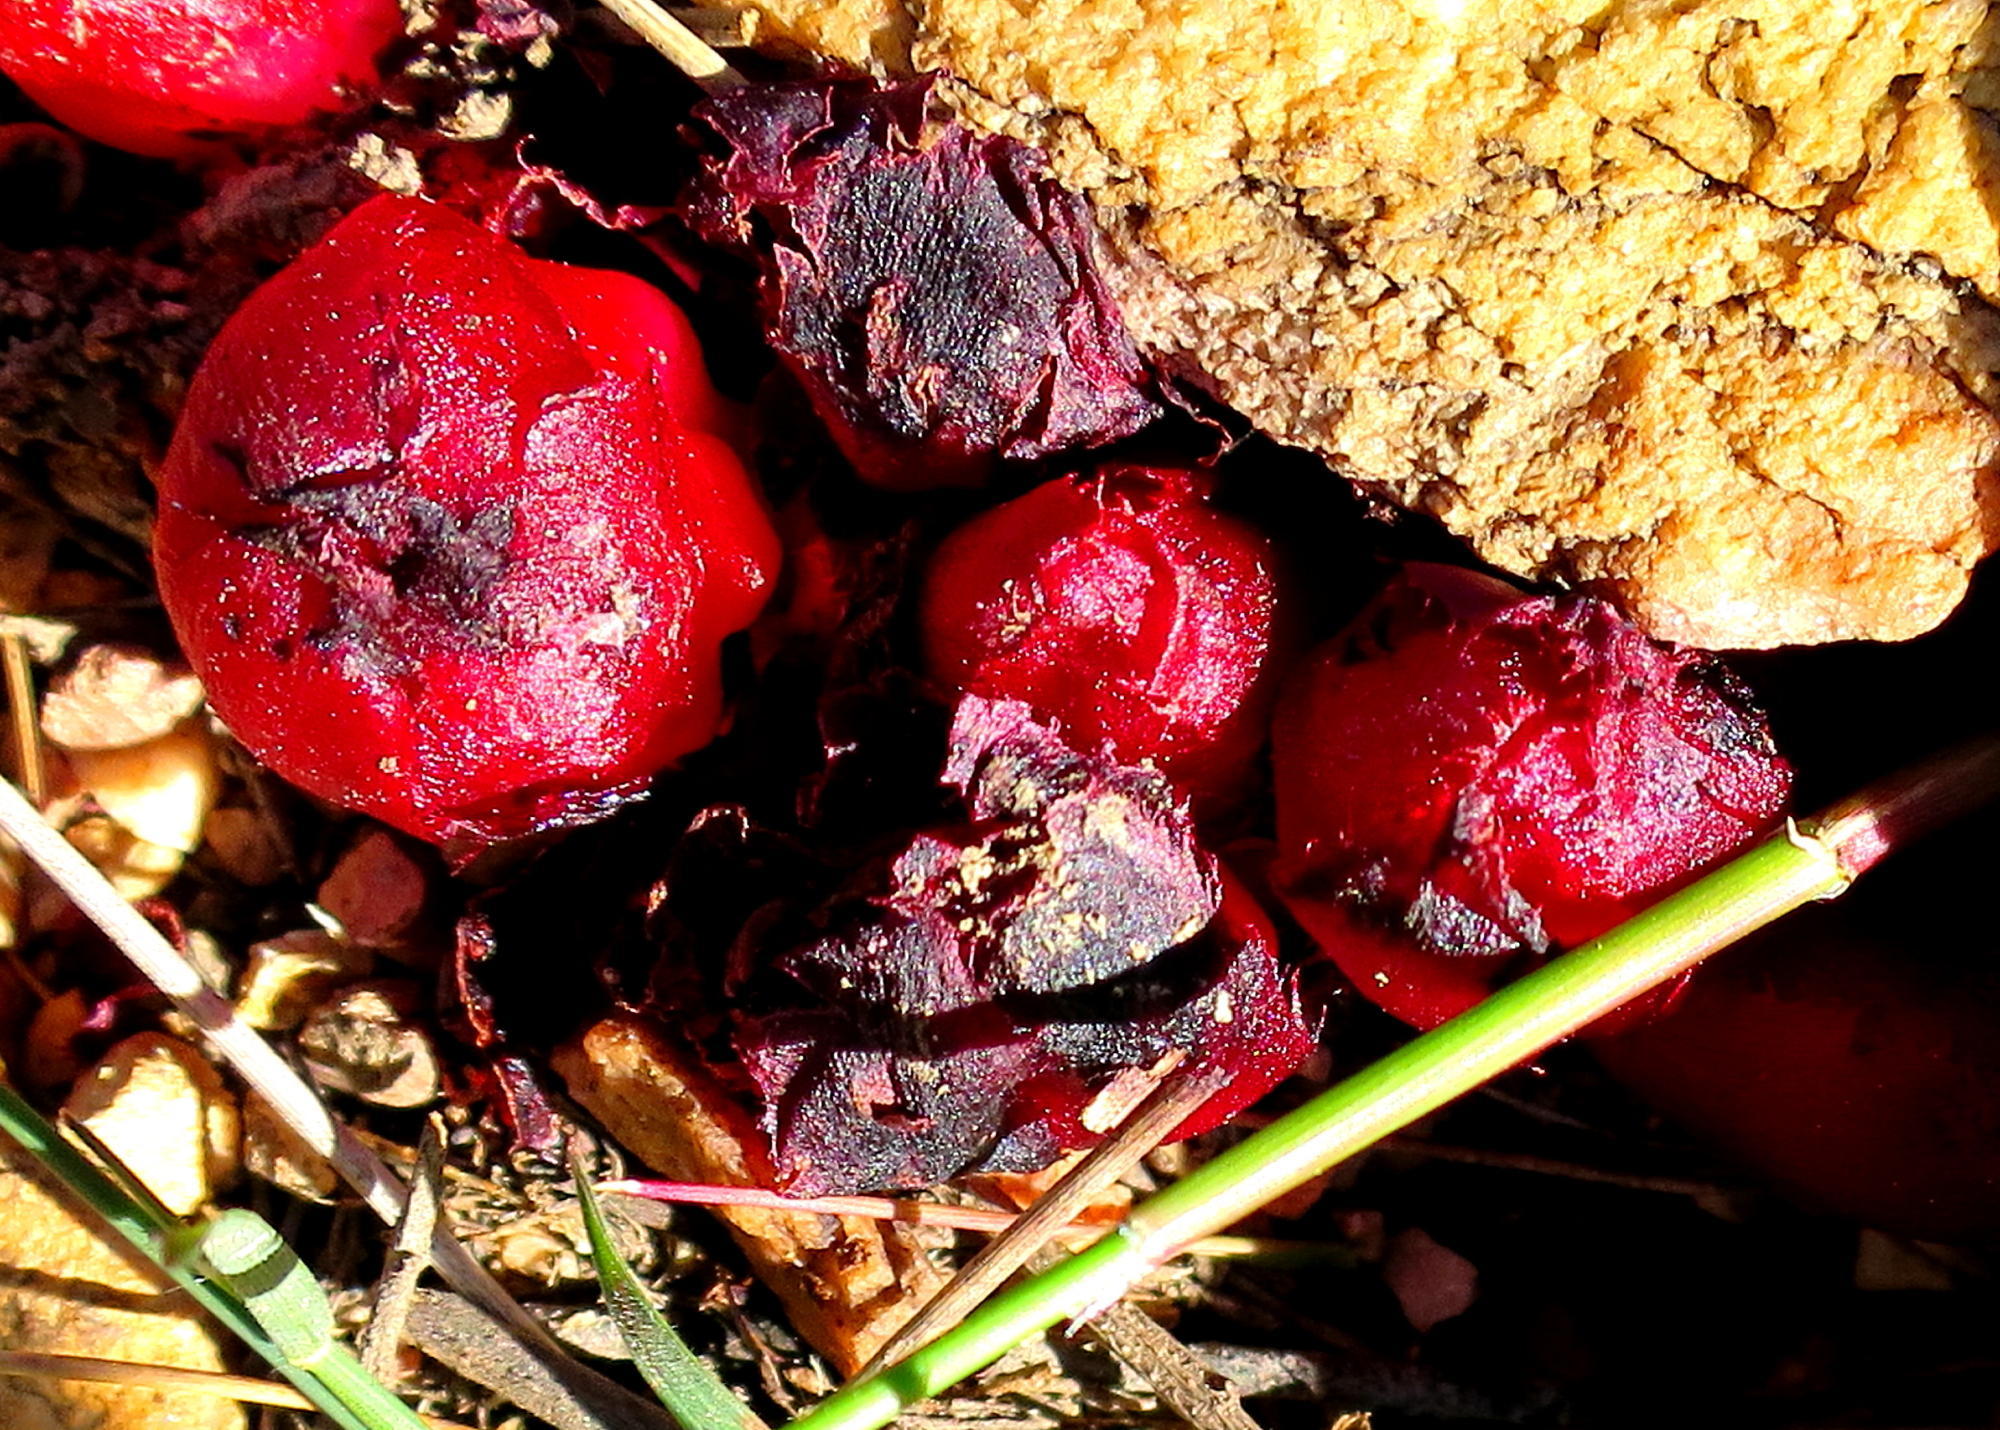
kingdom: Plantae
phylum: Tracheophyta
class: Magnoliopsida
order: Malvales
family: Cytinaceae
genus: Cytinus
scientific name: Cytinus sanguineus
